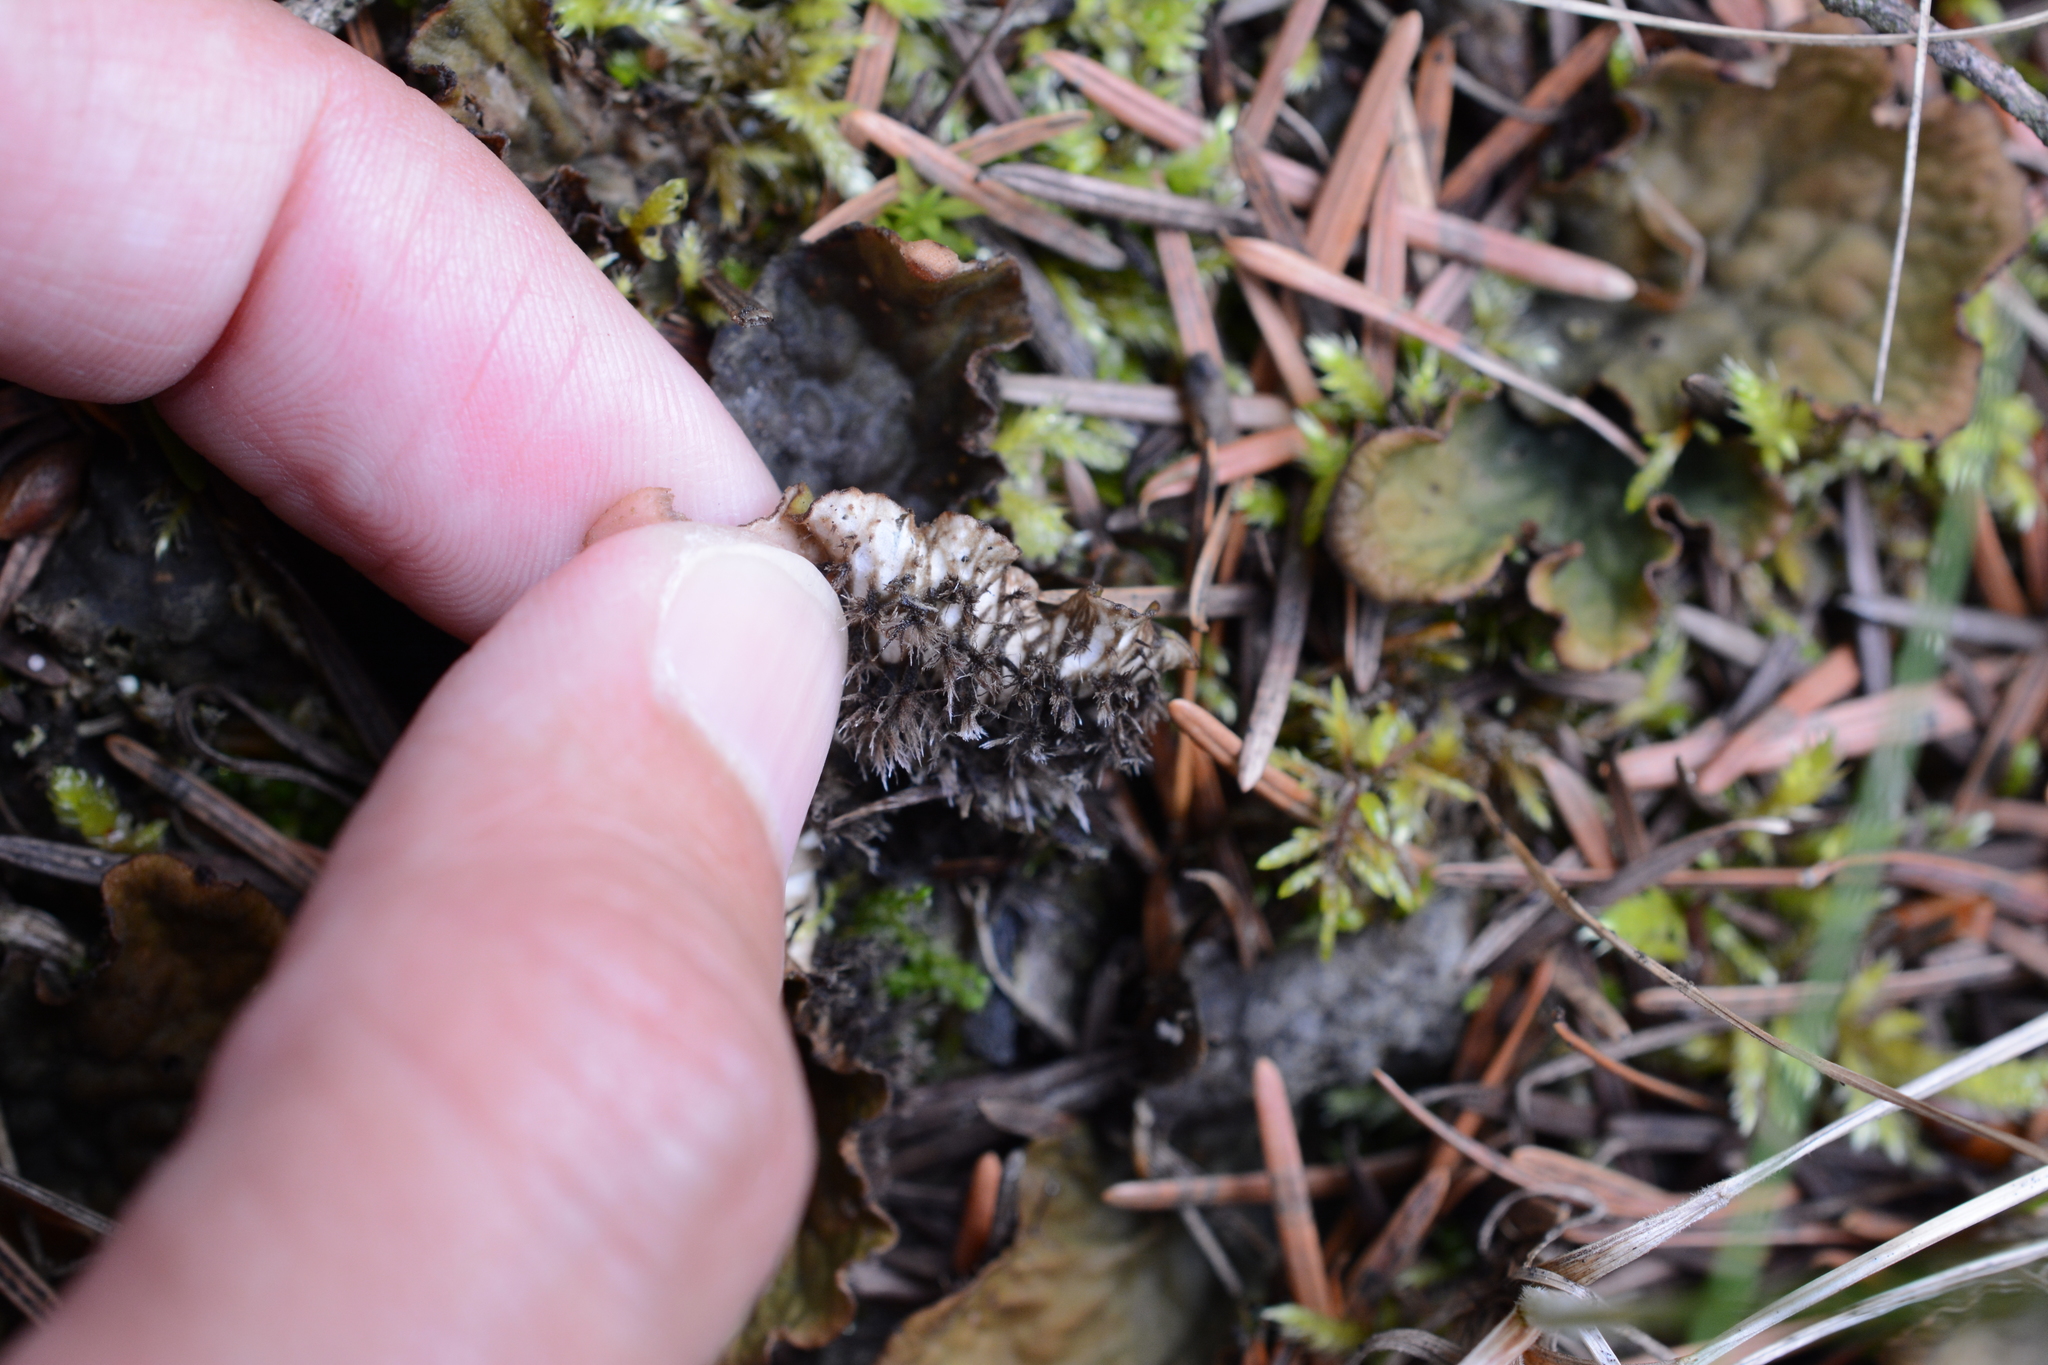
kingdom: Fungi
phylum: Ascomycota
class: Lecanoromycetes
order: Peltigerales
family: Peltigeraceae
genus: Peltigera
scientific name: Peltigera membranacea
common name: Membranous pelt lichen
